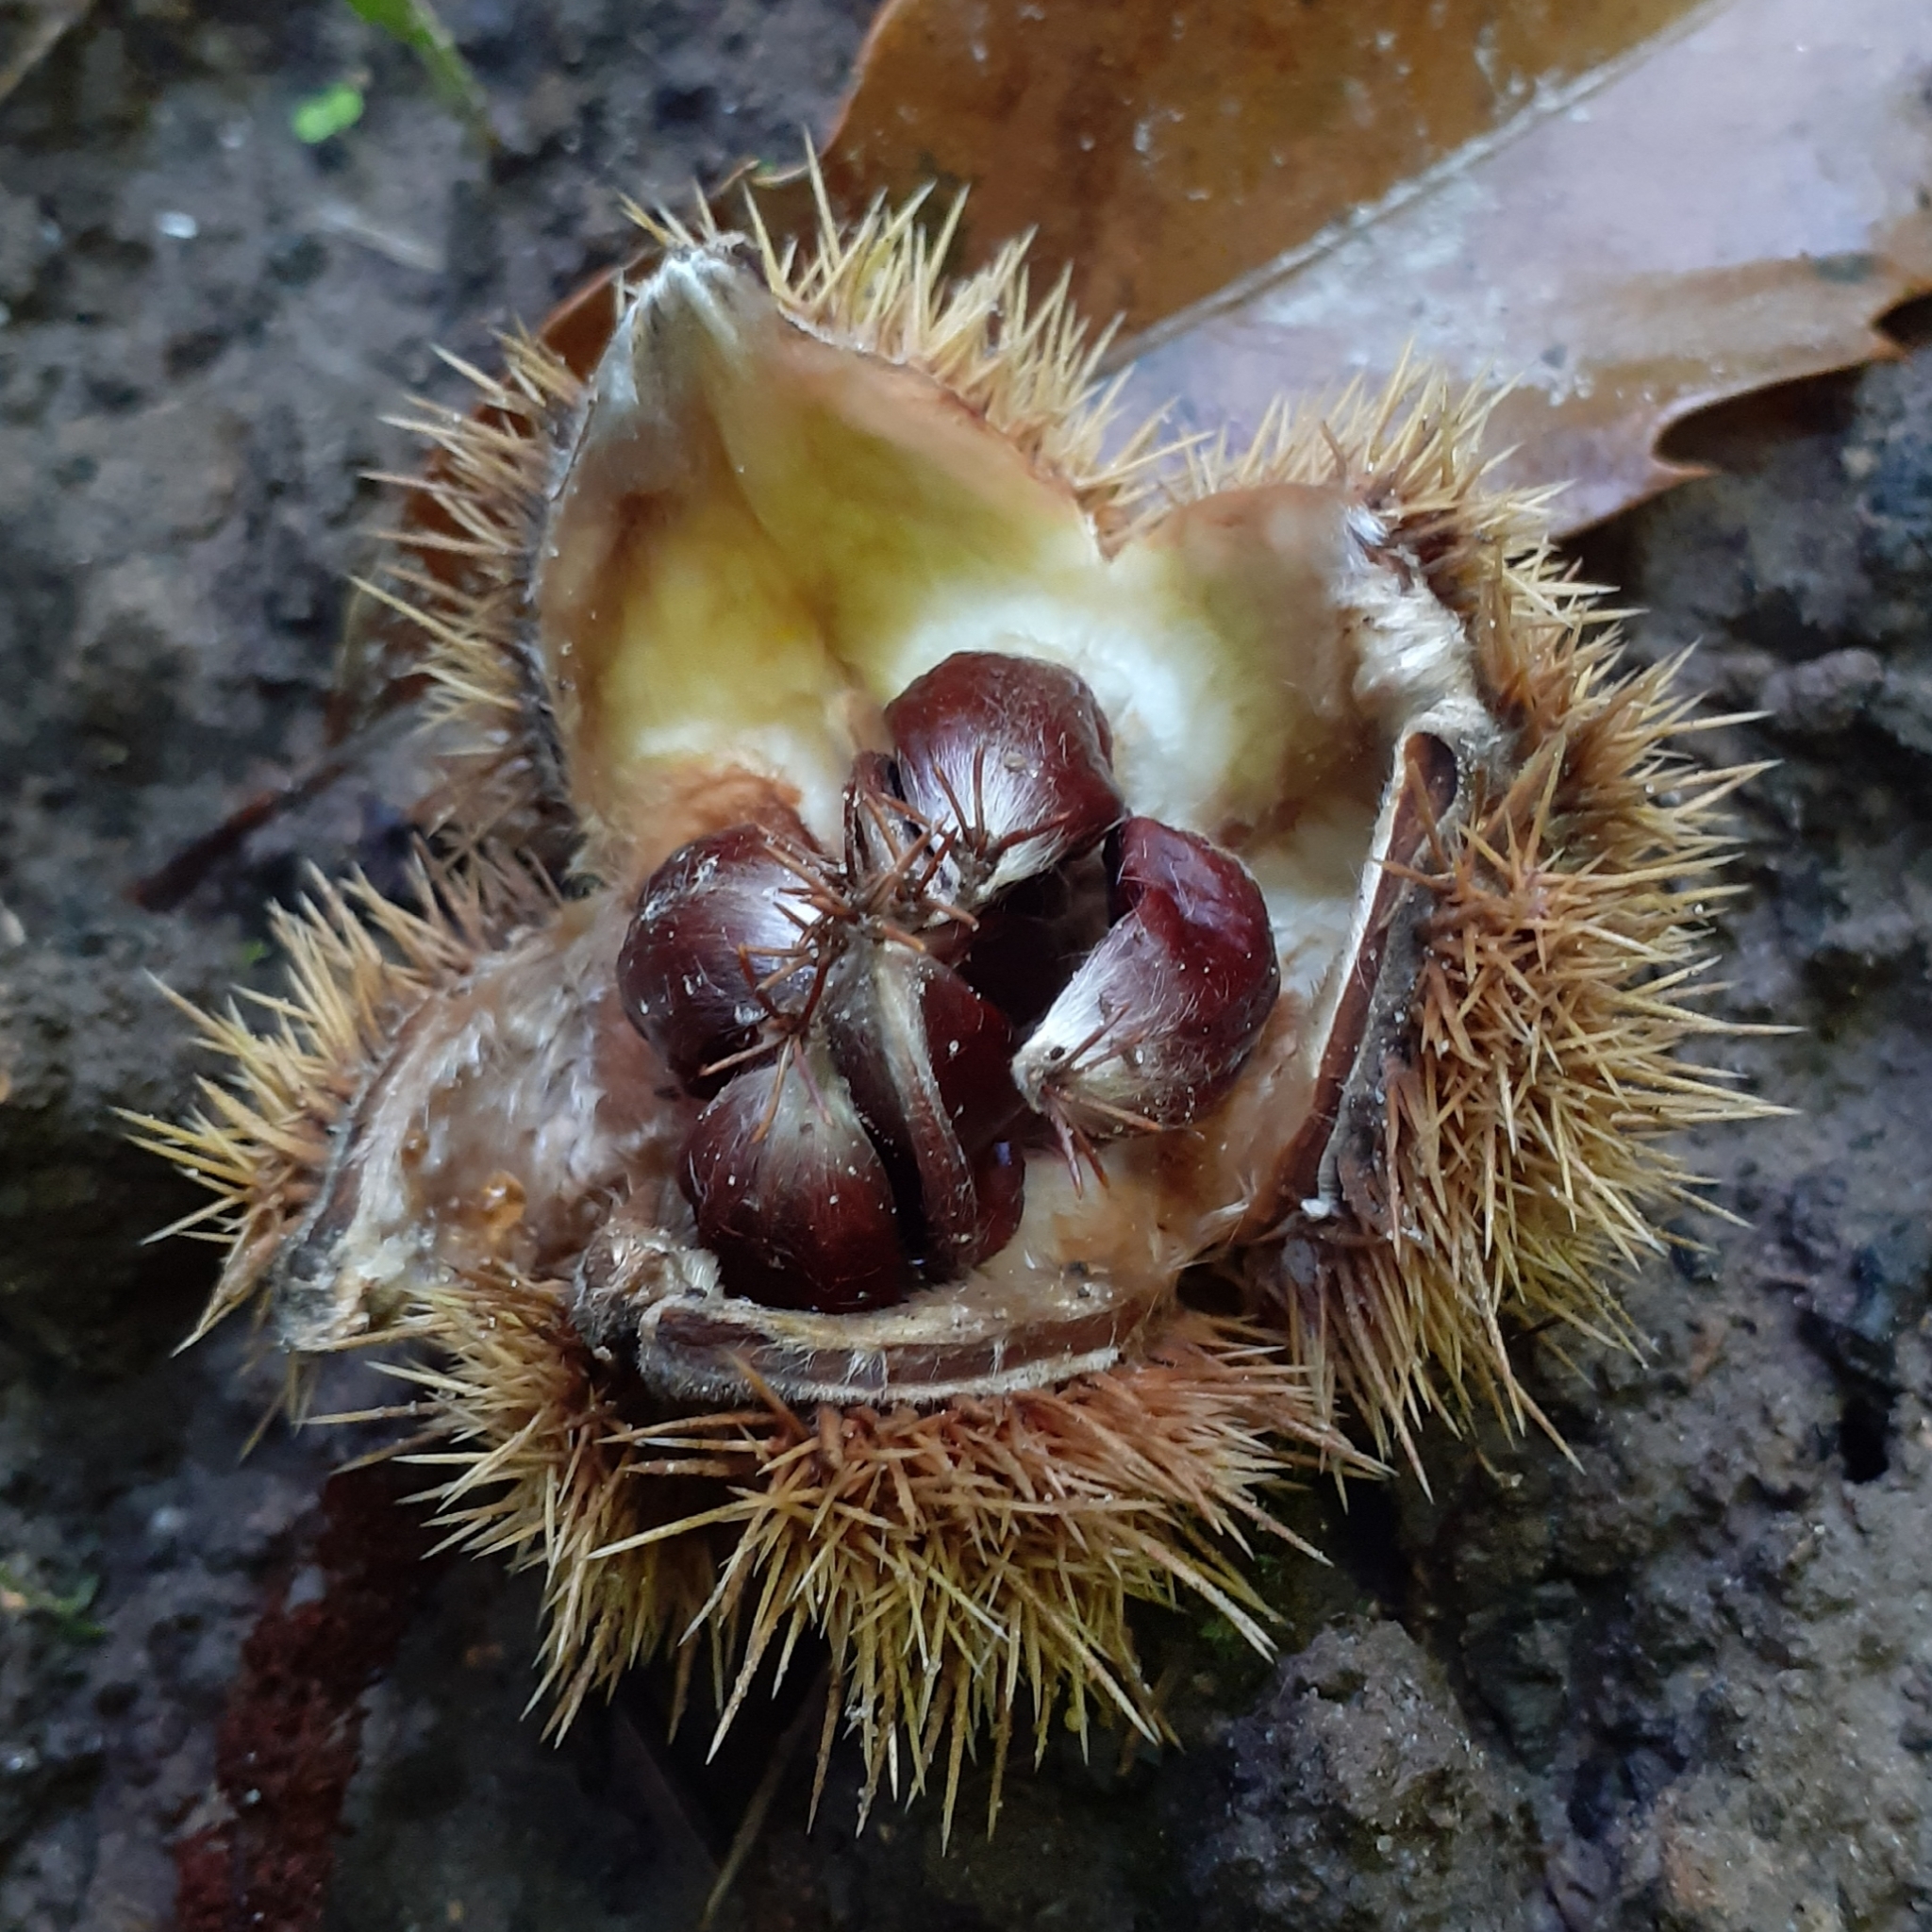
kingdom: Plantae
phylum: Tracheophyta
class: Magnoliopsida
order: Fagales
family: Fagaceae
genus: Castanea
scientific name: Castanea sativa
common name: Sweet chestnut
